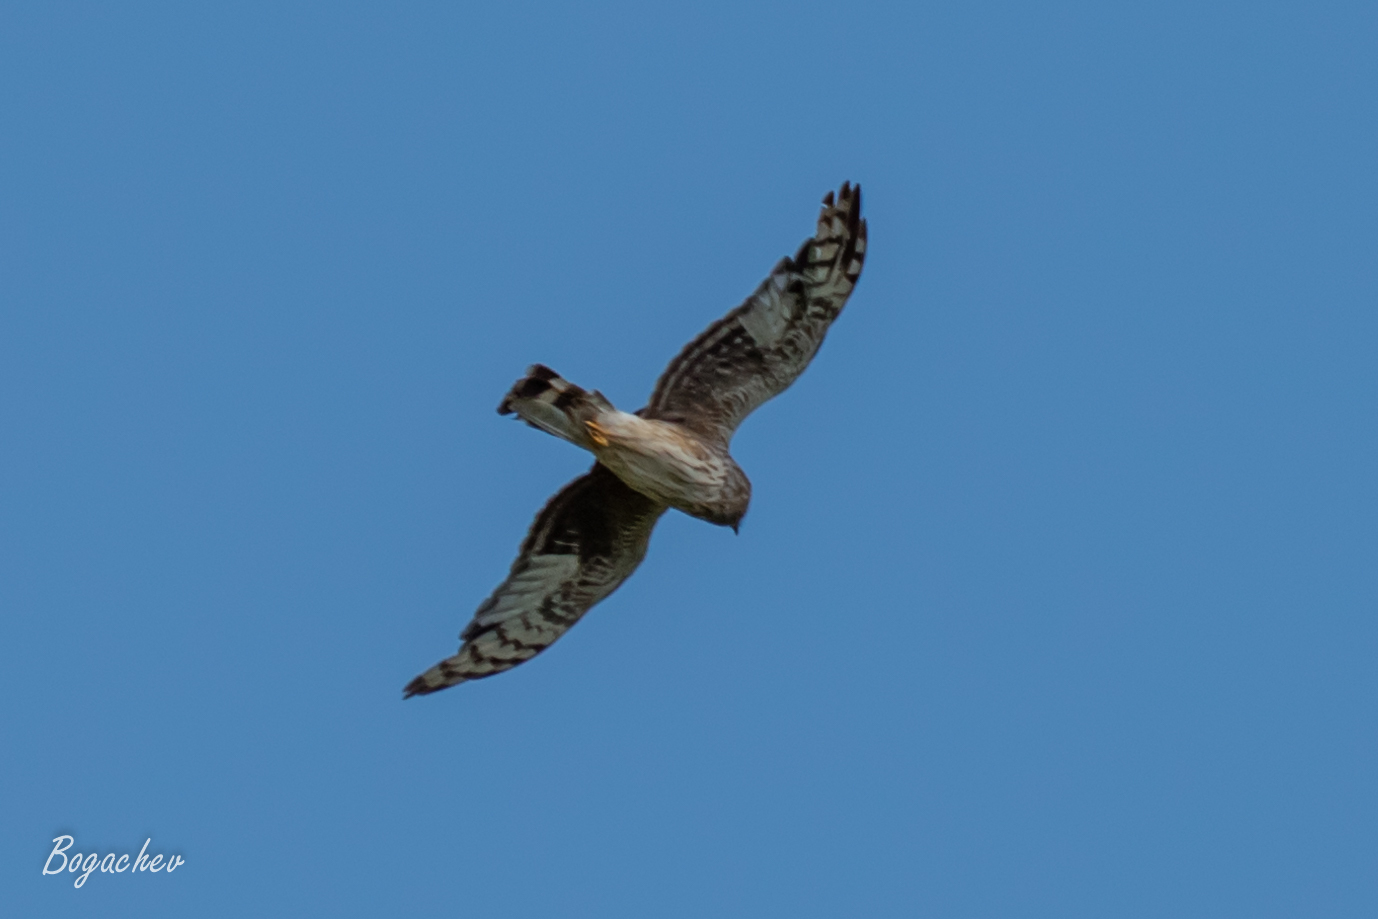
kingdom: Animalia
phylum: Chordata
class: Aves
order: Accipitriformes
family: Accipitridae
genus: Circus
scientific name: Circus cyaneus
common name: Hen harrier
